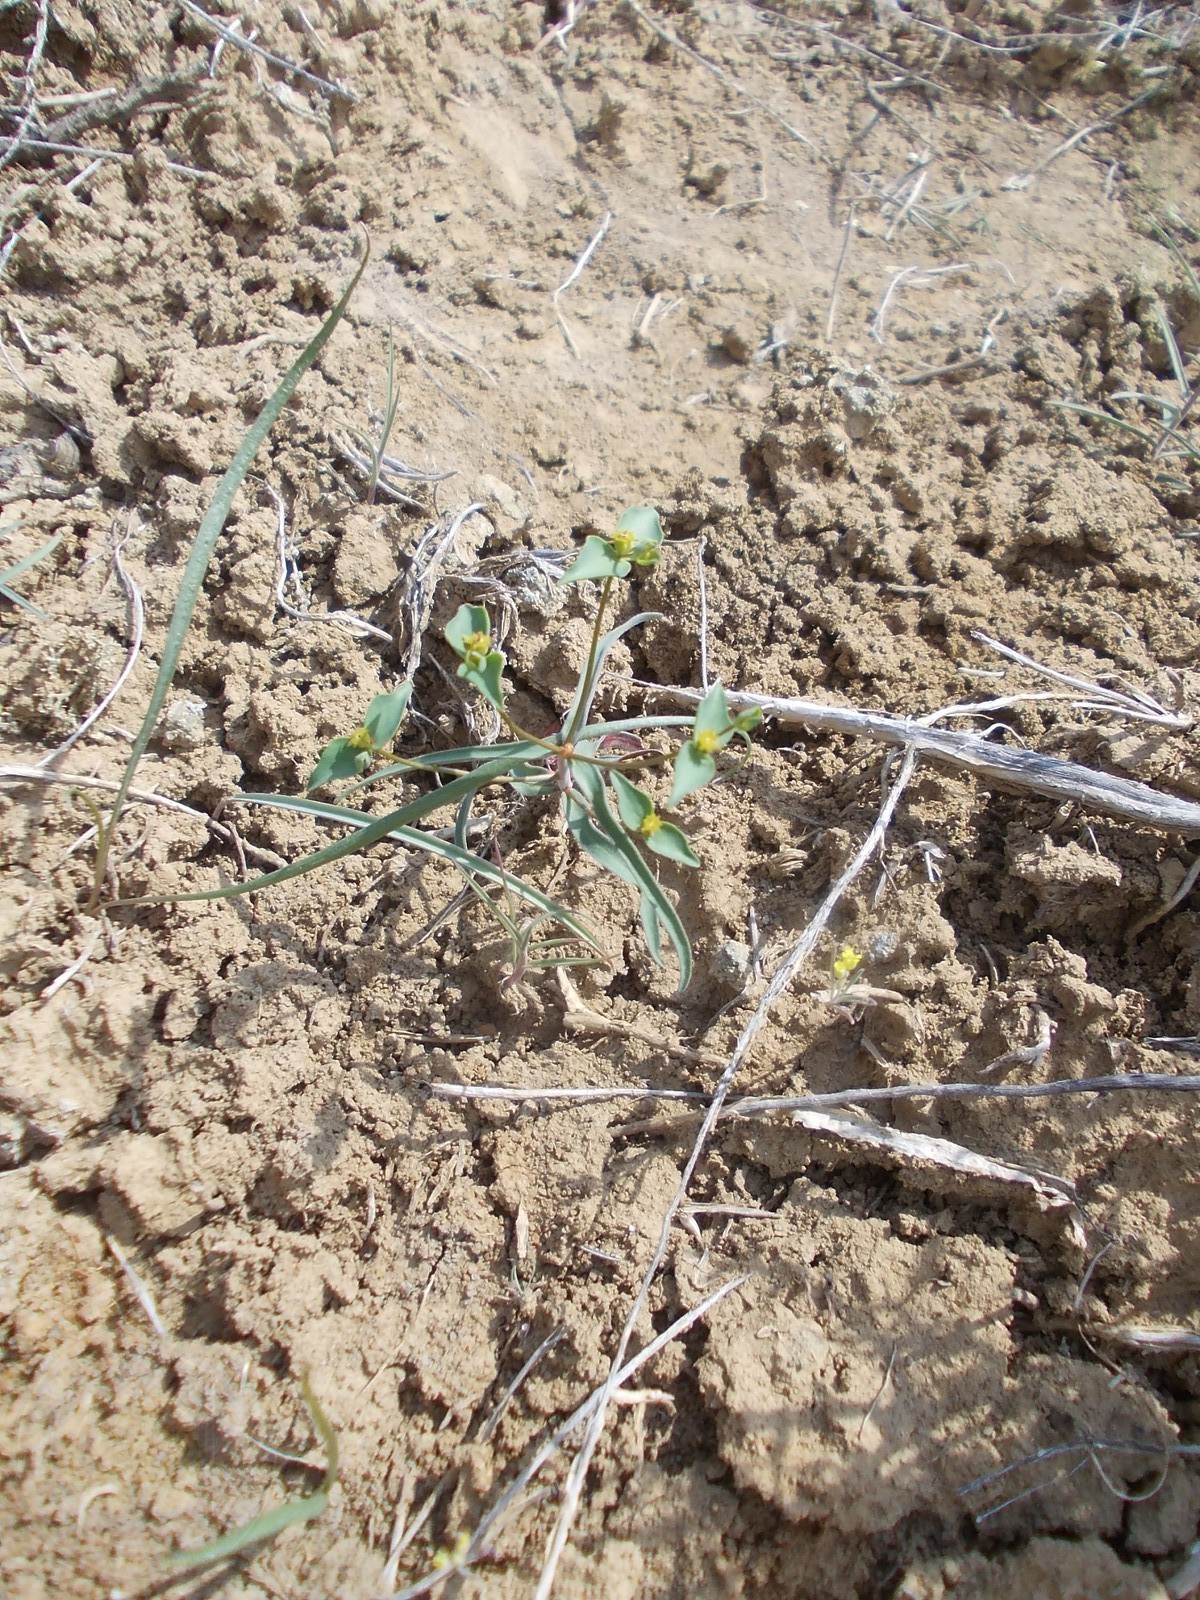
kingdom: Plantae
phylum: Tracheophyta
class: Magnoliopsida
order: Malpighiales
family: Euphorbiaceae
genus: Euphorbia
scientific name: Euphorbia praecox
